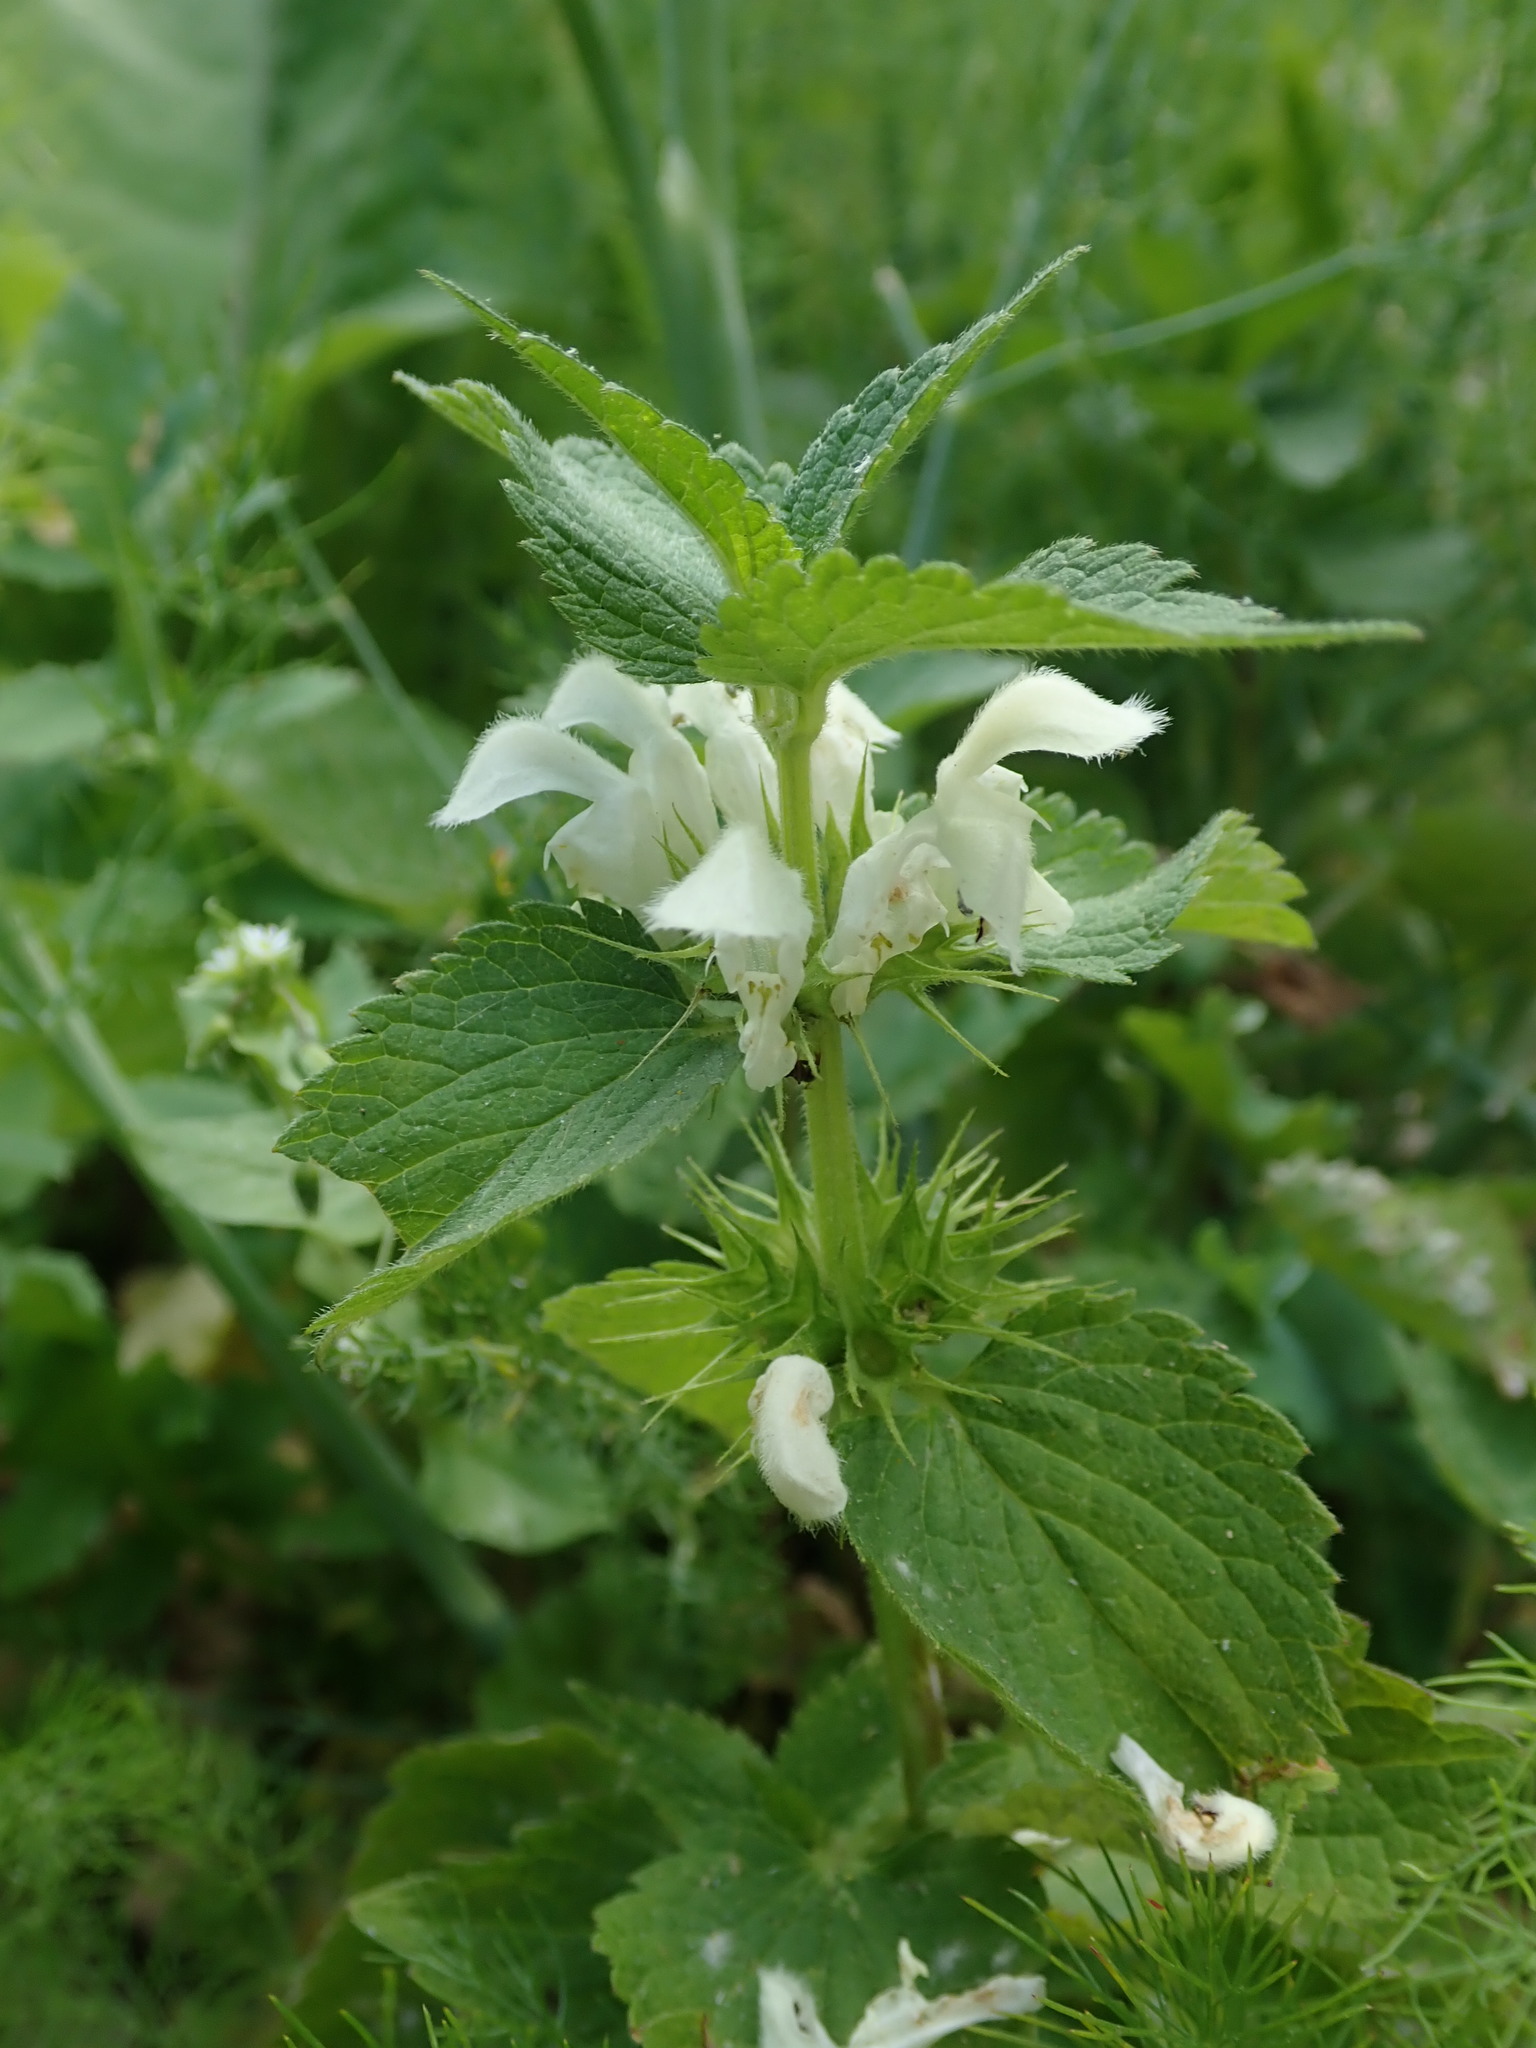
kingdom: Plantae
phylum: Tracheophyta
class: Magnoliopsida
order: Lamiales
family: Lamiaceae
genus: Lamium
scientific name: Lamium album
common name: White dead-nettle
